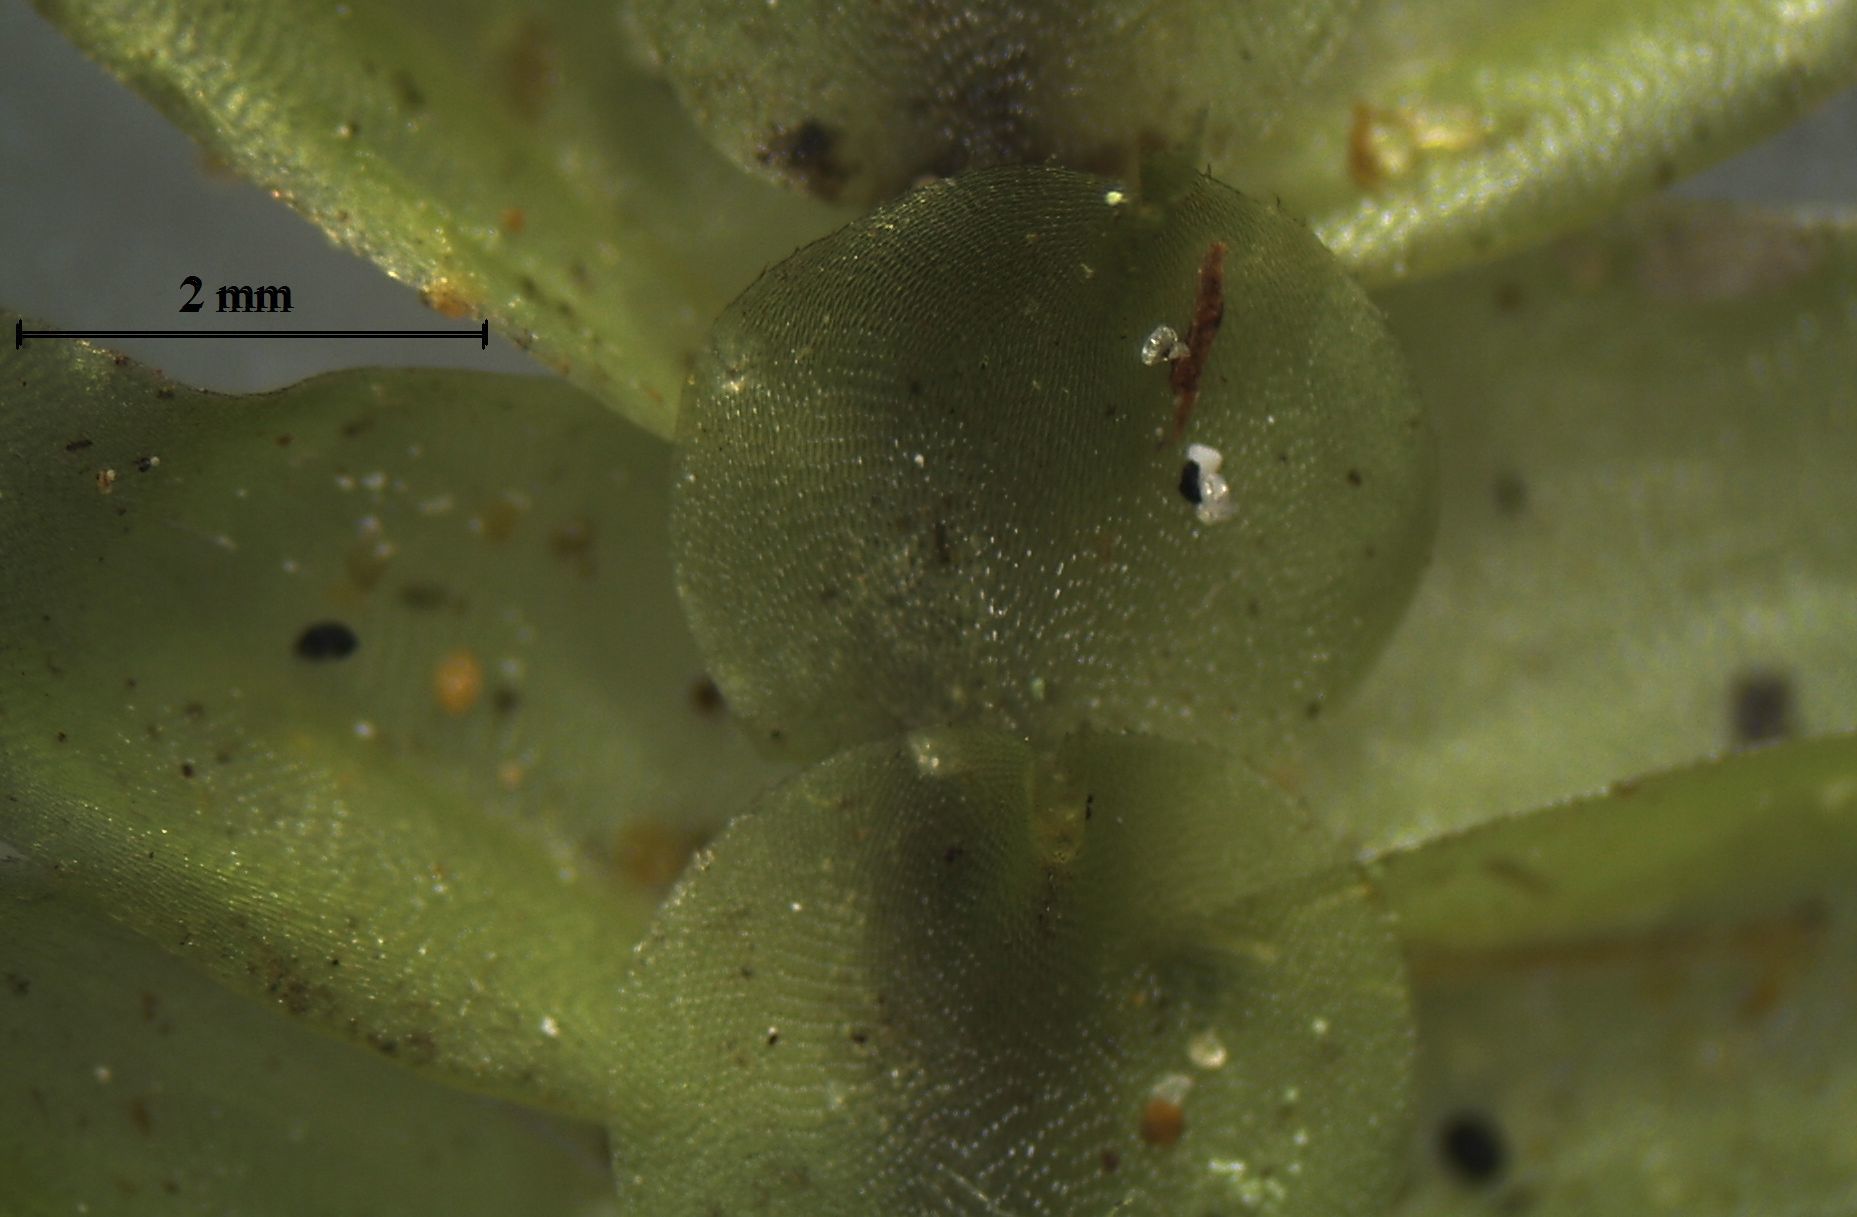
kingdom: Plantae
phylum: Bryophyta
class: Bryopsida
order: Hypopterygiales
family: Hypopterygiaceae
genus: Cyathophorum
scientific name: Cyathophorum bulbosum
